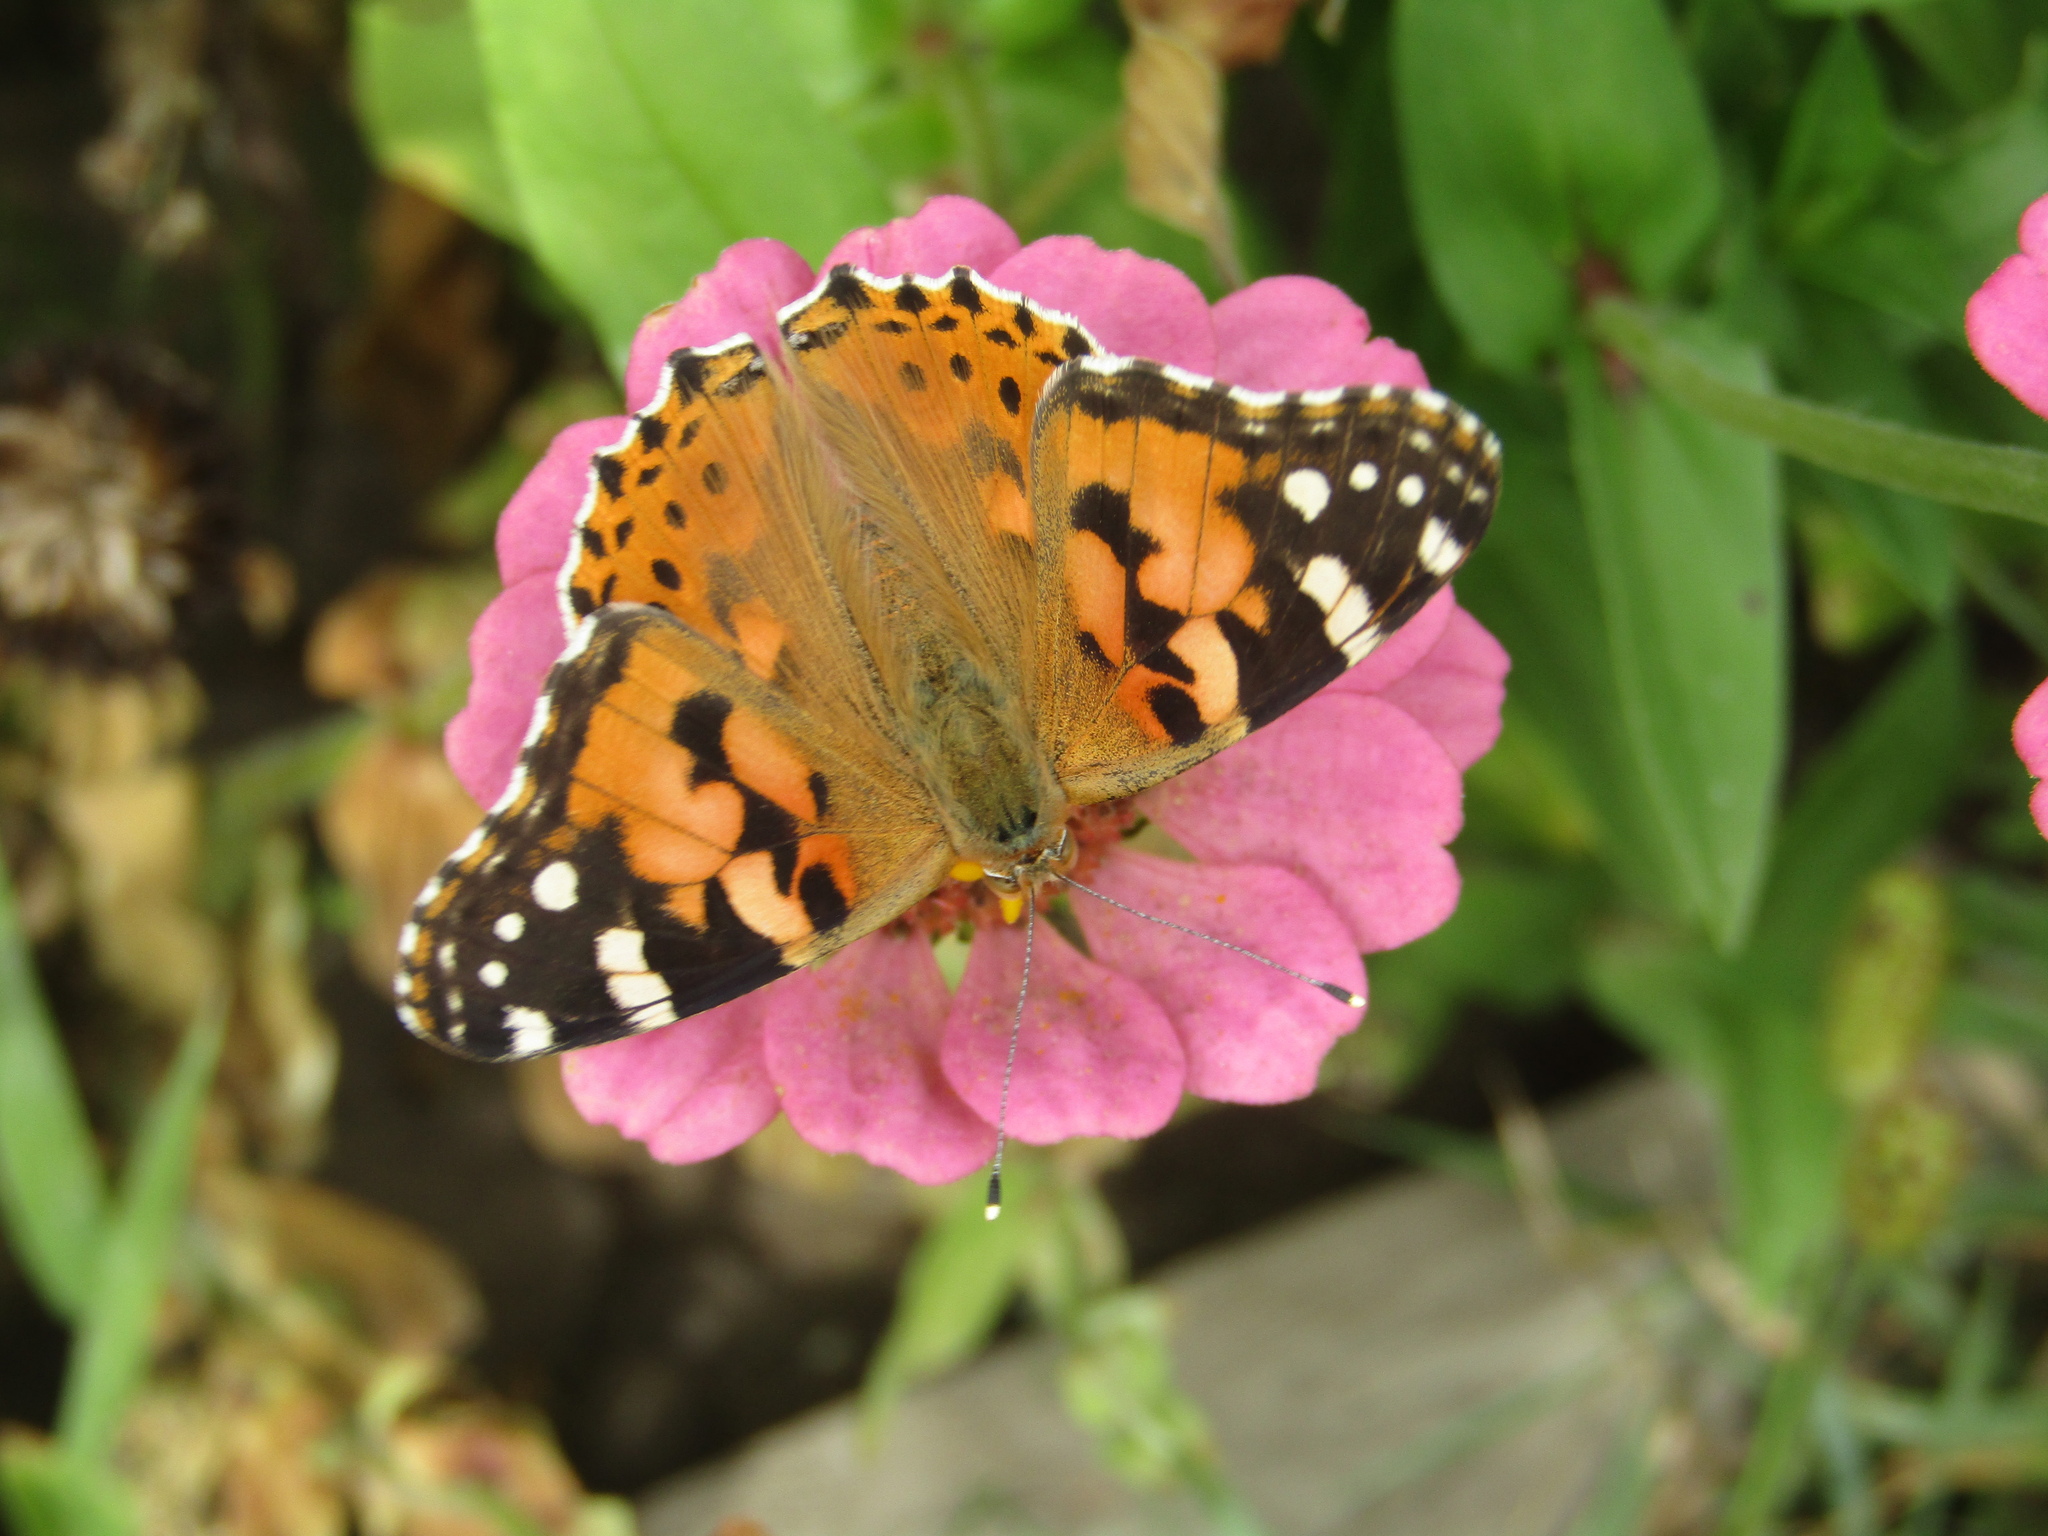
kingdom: Animalia
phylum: Arthropoda
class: Insecta
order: Lepidoptera
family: Nymphalidae
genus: Vanessa
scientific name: Vanessa cardui
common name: Painted lady
